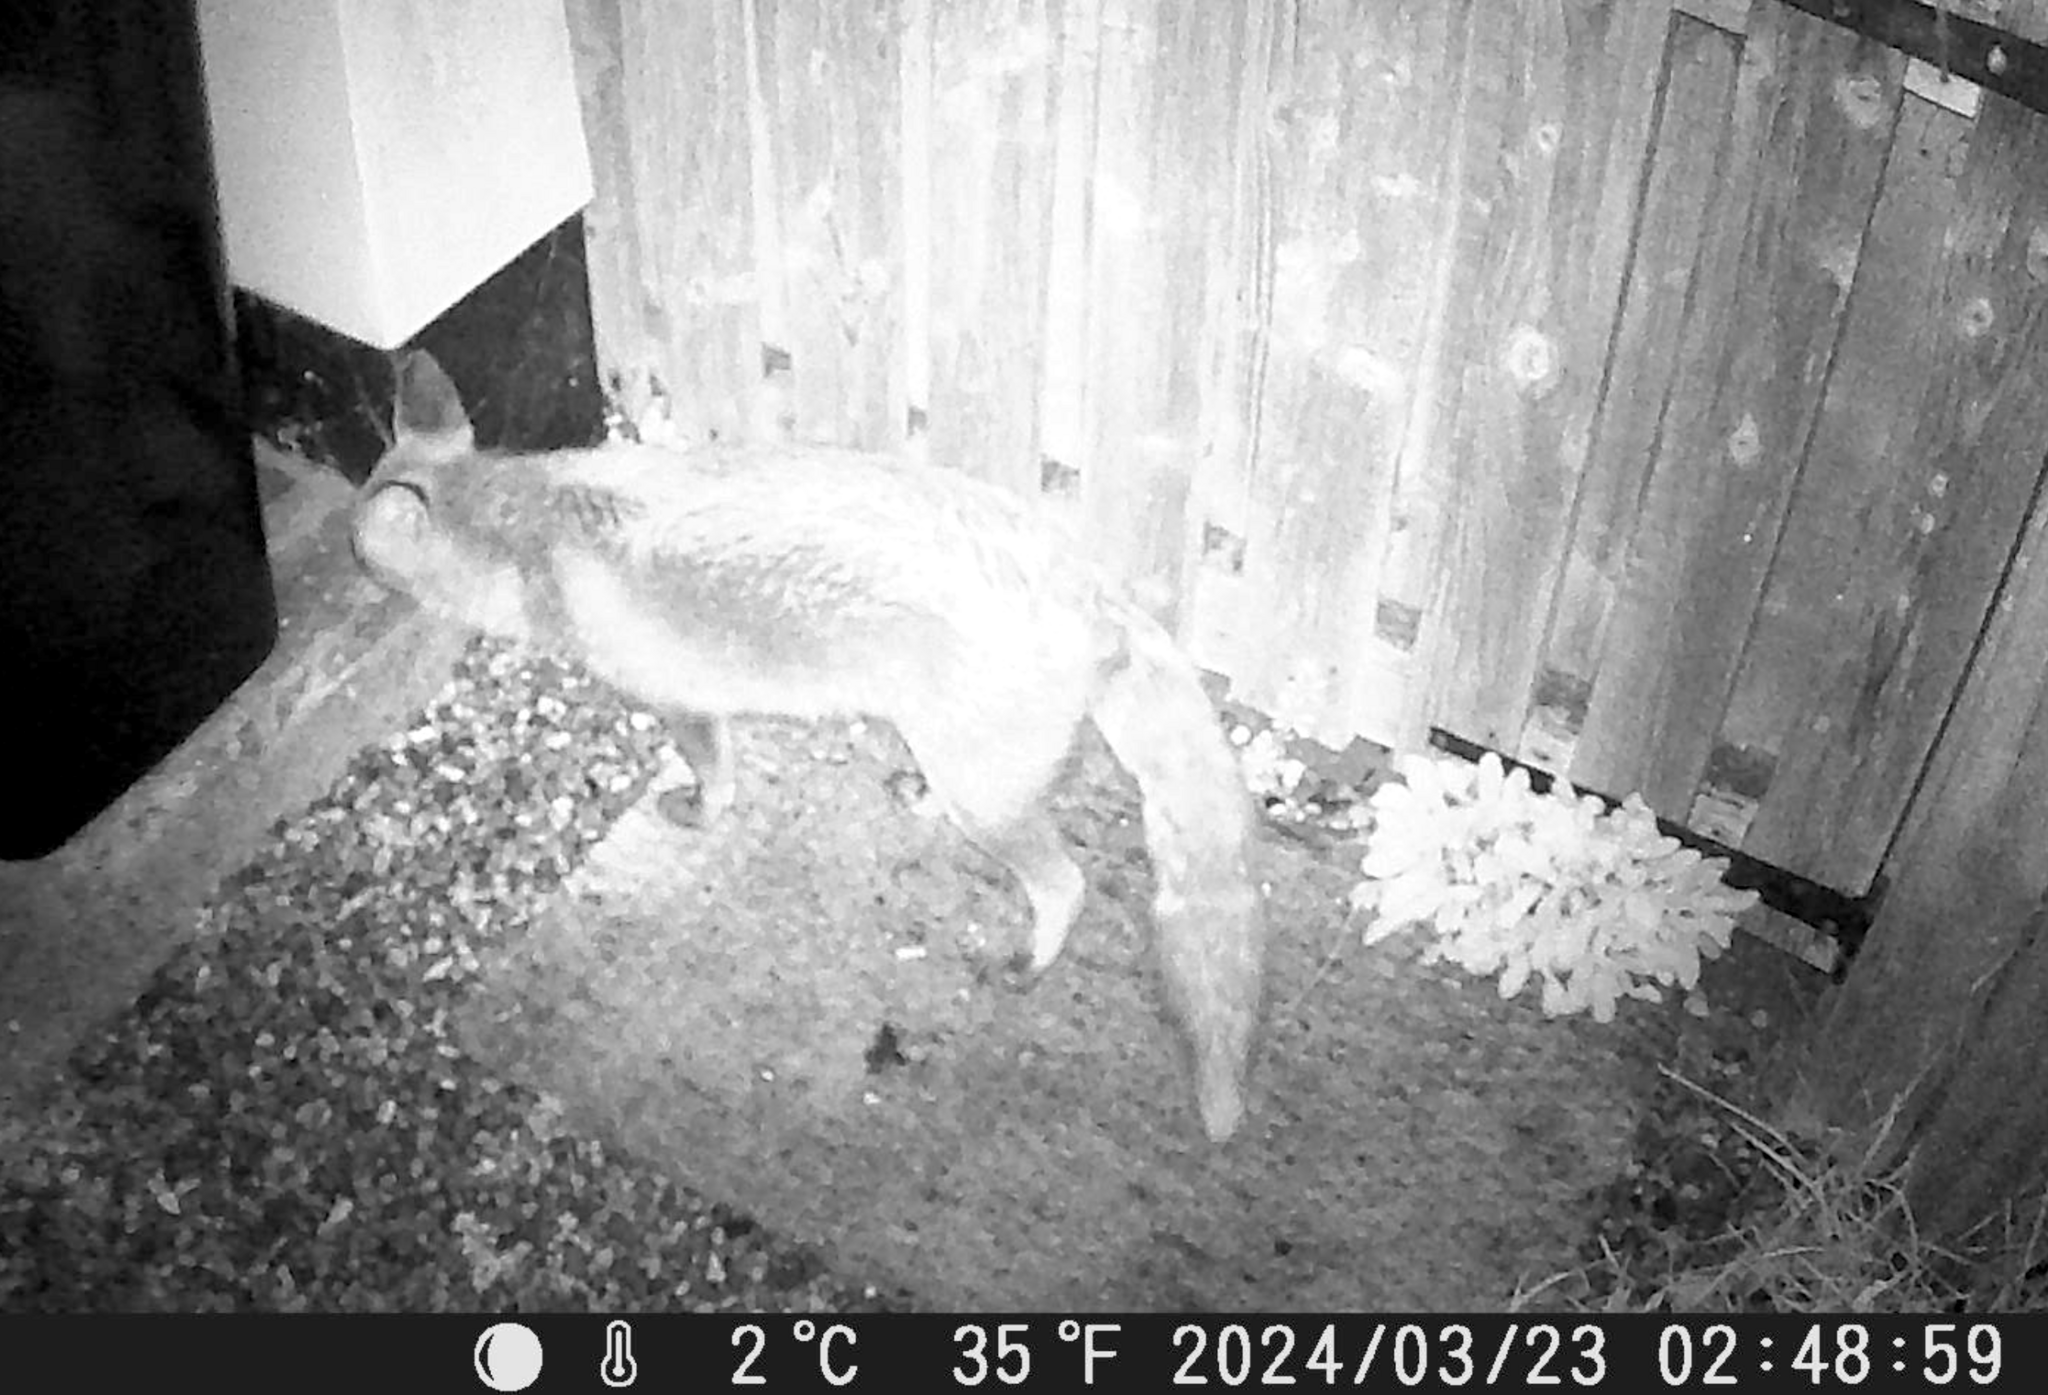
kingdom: Animalia
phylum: Chordata
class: Mammalia
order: Carnivora
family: Canidae
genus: Vulpes
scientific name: Vulpes vulpes
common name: Red fox
